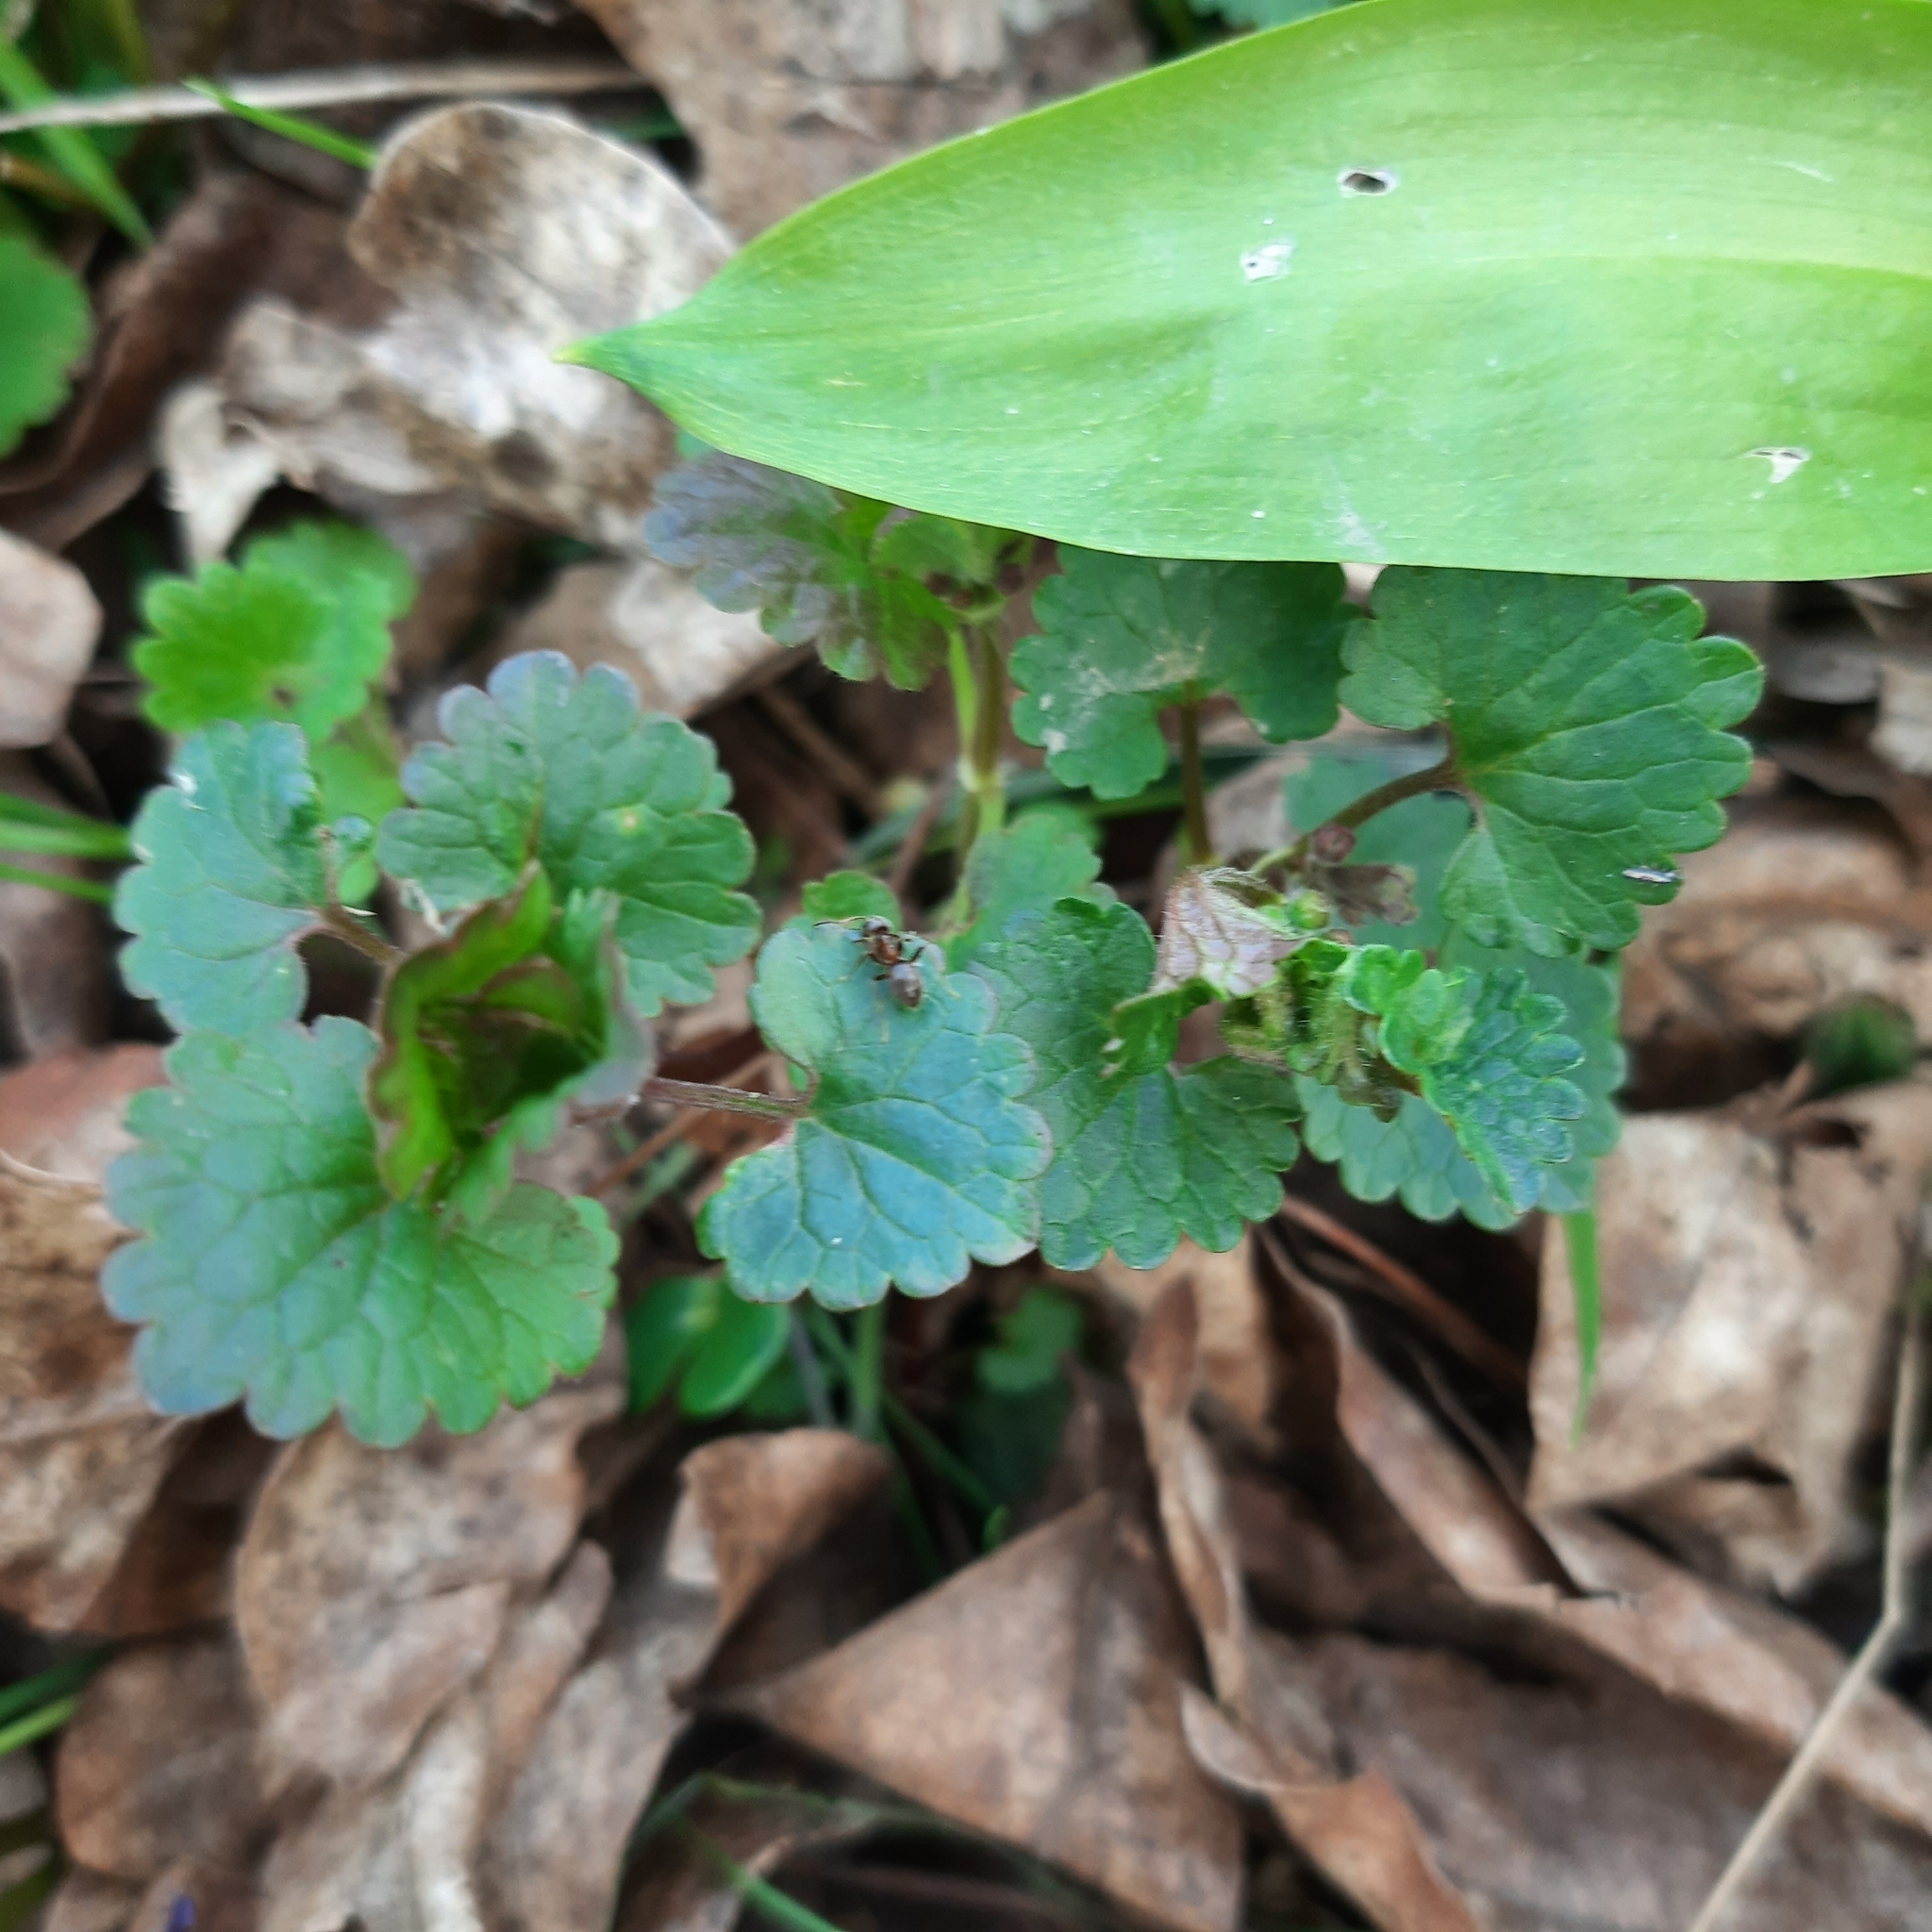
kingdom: Plantae
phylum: Tracheophyta
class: Magnoliopsida
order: Lamiales
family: Lamiaceae
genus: Glechoma
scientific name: Glechoma hederacea
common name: Ground ivy
